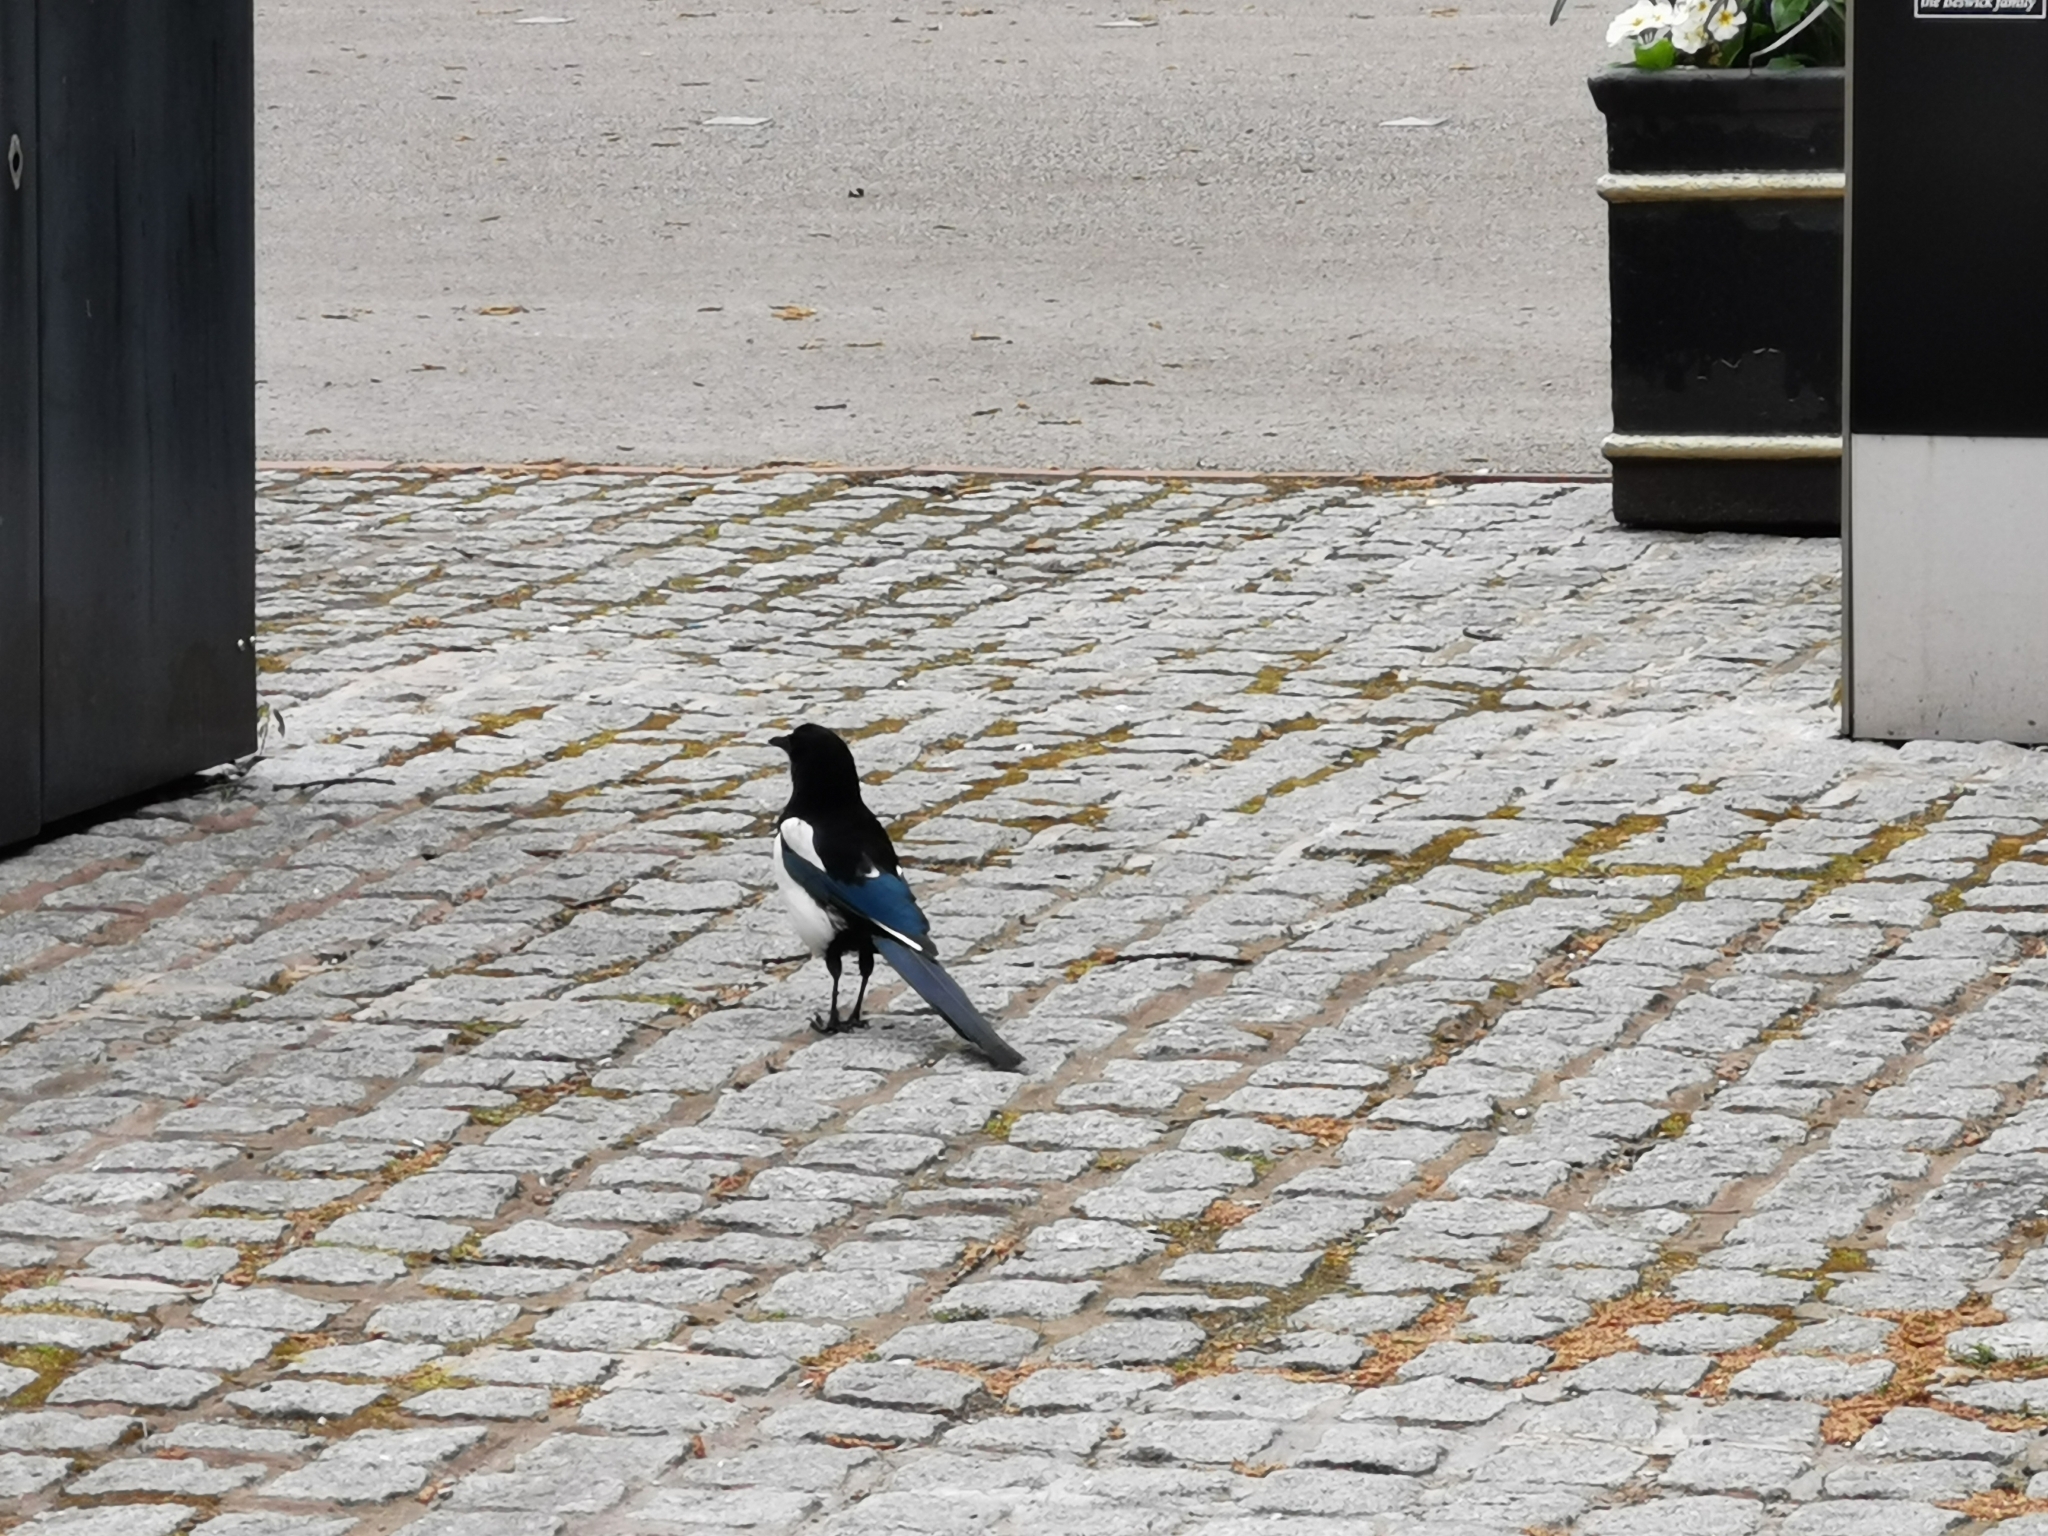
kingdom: Animalia
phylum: Chordata
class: Aves
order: Passeriformes
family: Corvidae
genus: Pica
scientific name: Pica pica
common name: Eurasian magpie
